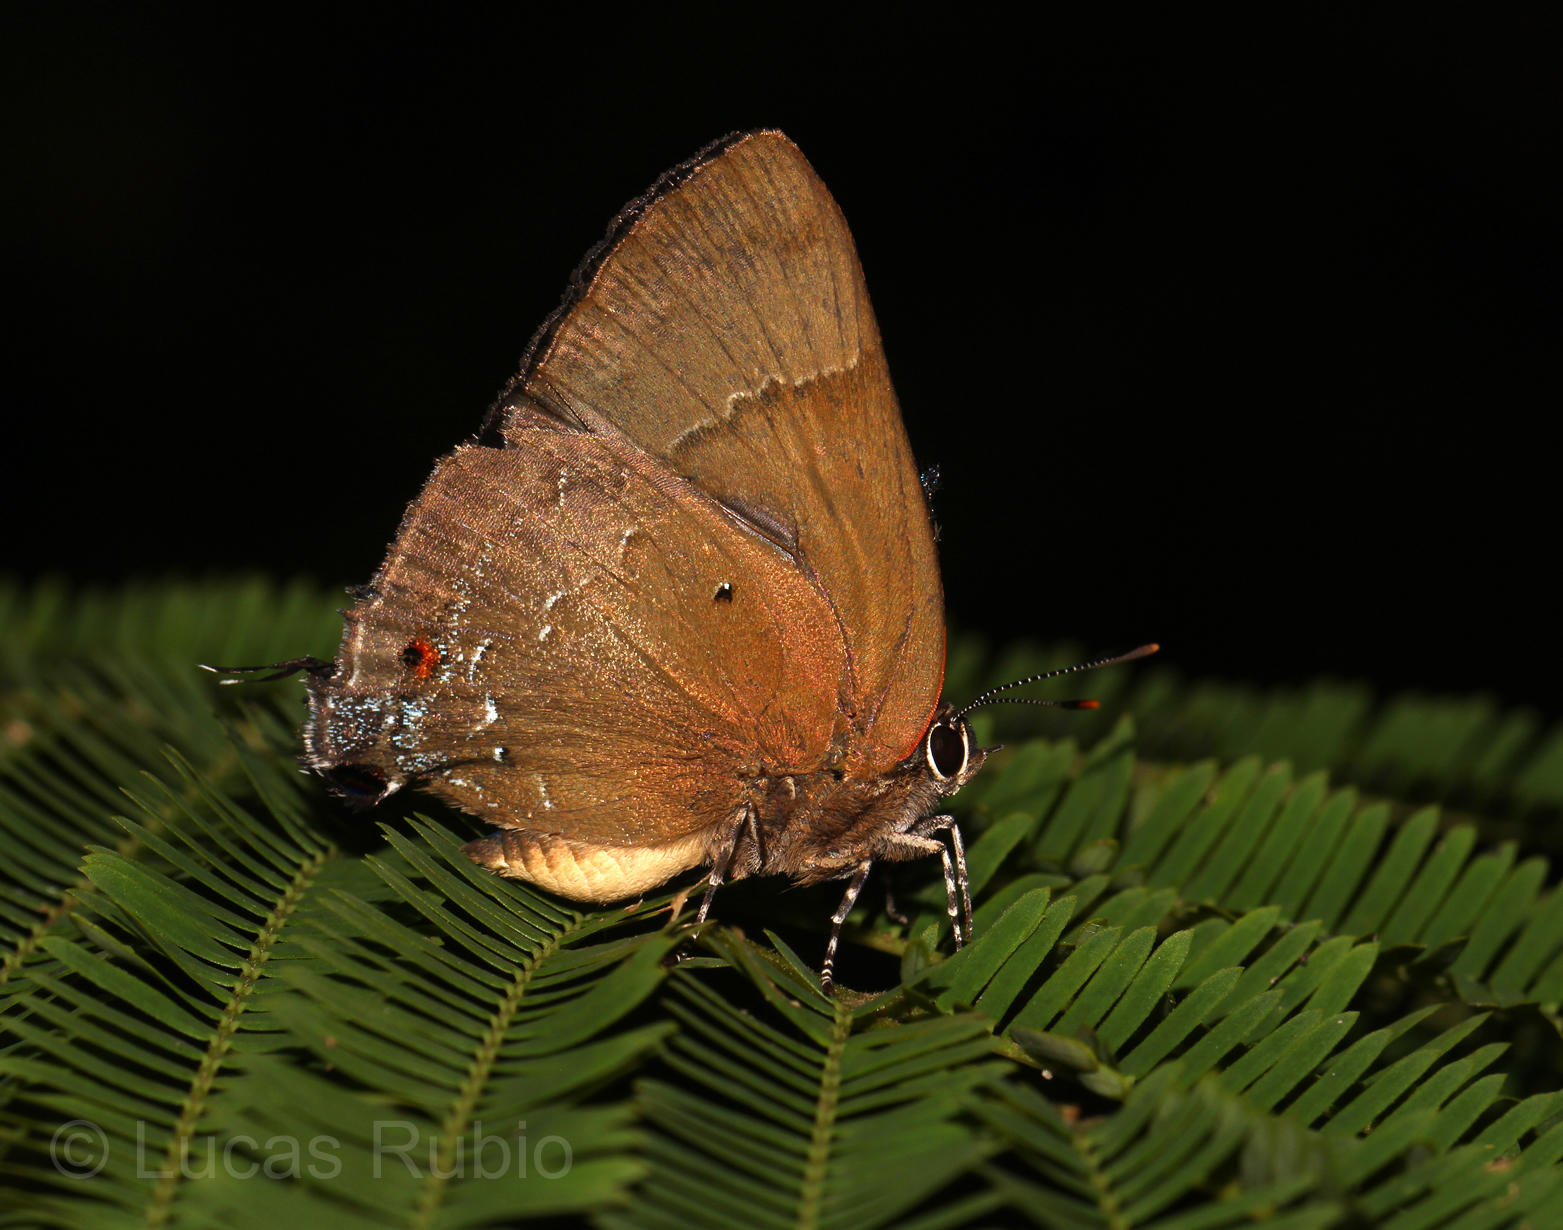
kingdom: Animalia
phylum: Arthropoda
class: Insecta
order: Lepidoptera
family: Lycaenidae
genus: Parrhasius
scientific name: Parrhasius orgia
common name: Variable hairstreak
